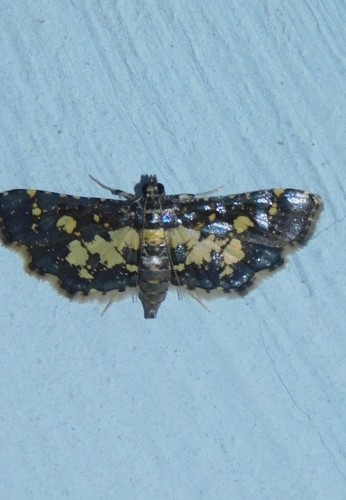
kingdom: Animalia
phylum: Arthropoda
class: Insecta
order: Lepidoptera
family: Crambidae
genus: Eurrhyparodes
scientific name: Eurrhyparodes bracteolalis
